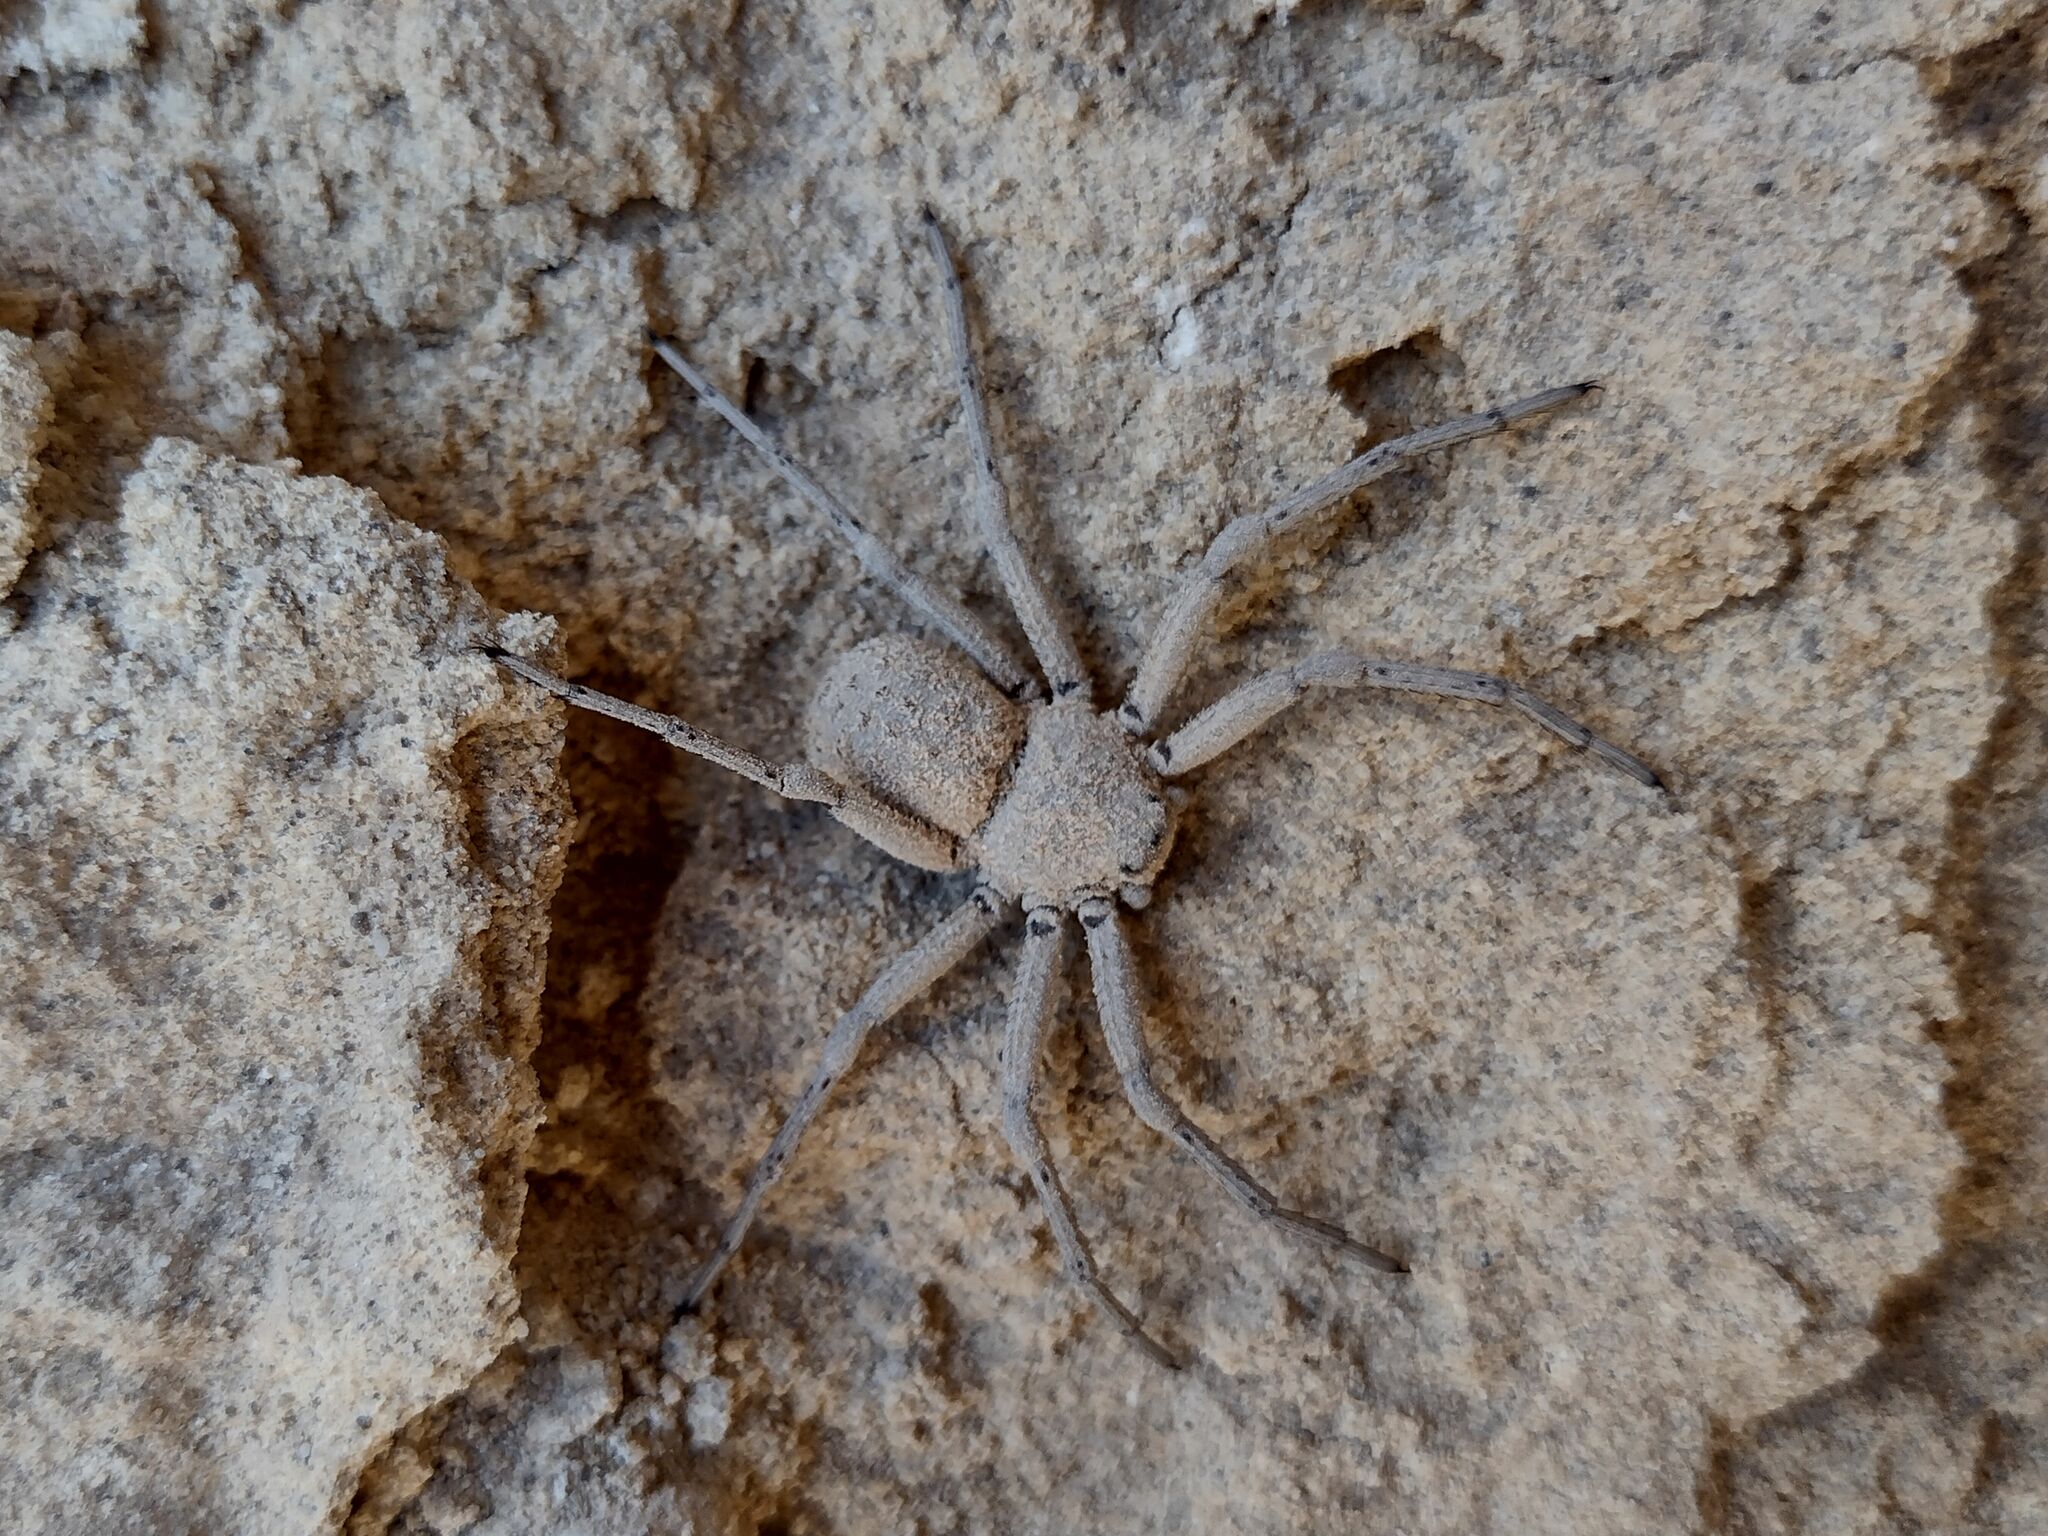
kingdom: Animalia
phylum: Arthropoda
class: Arachnida
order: Araneae
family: Sicariidae
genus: Sicarius
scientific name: Sicarius levii
